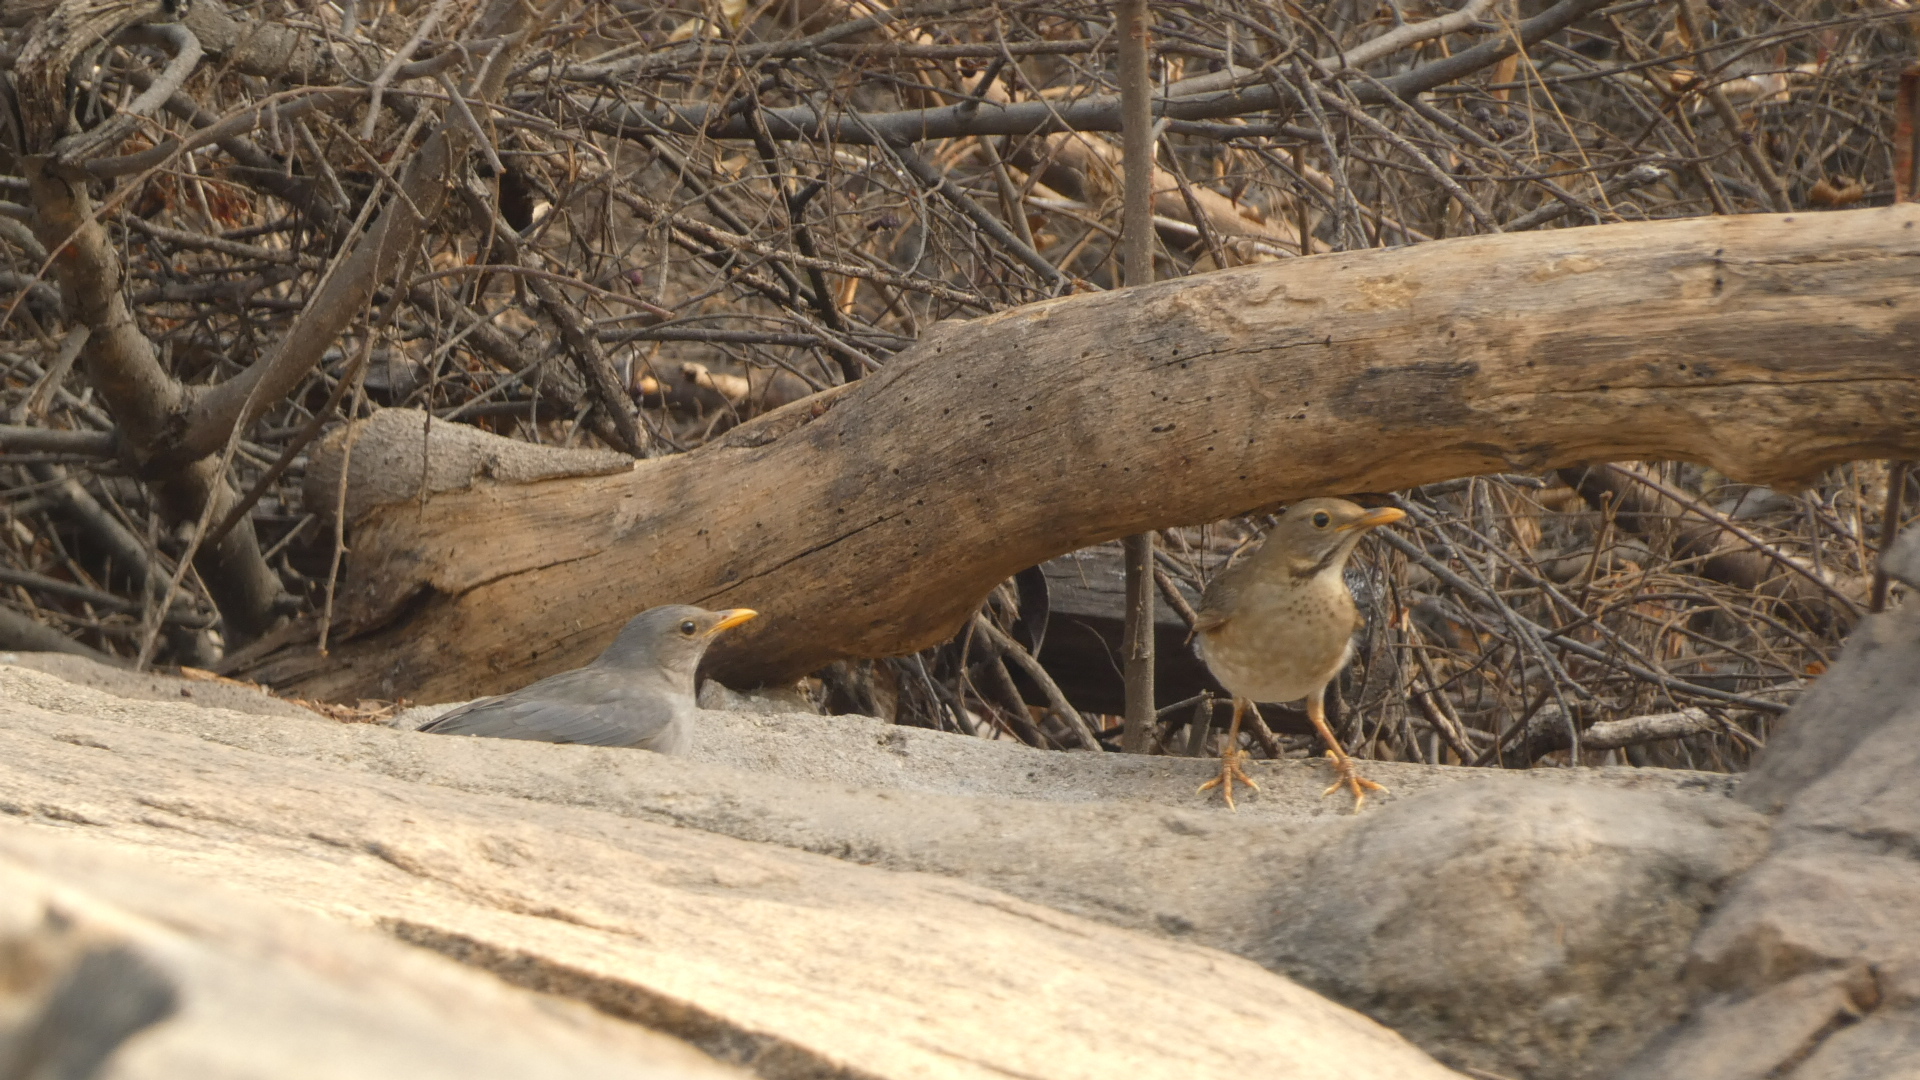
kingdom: Animalia
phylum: Chordata
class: Aves
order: Passeriformes
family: Turdidae
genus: Turdus
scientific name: Turdus unicolor
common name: Tickell's thrush
